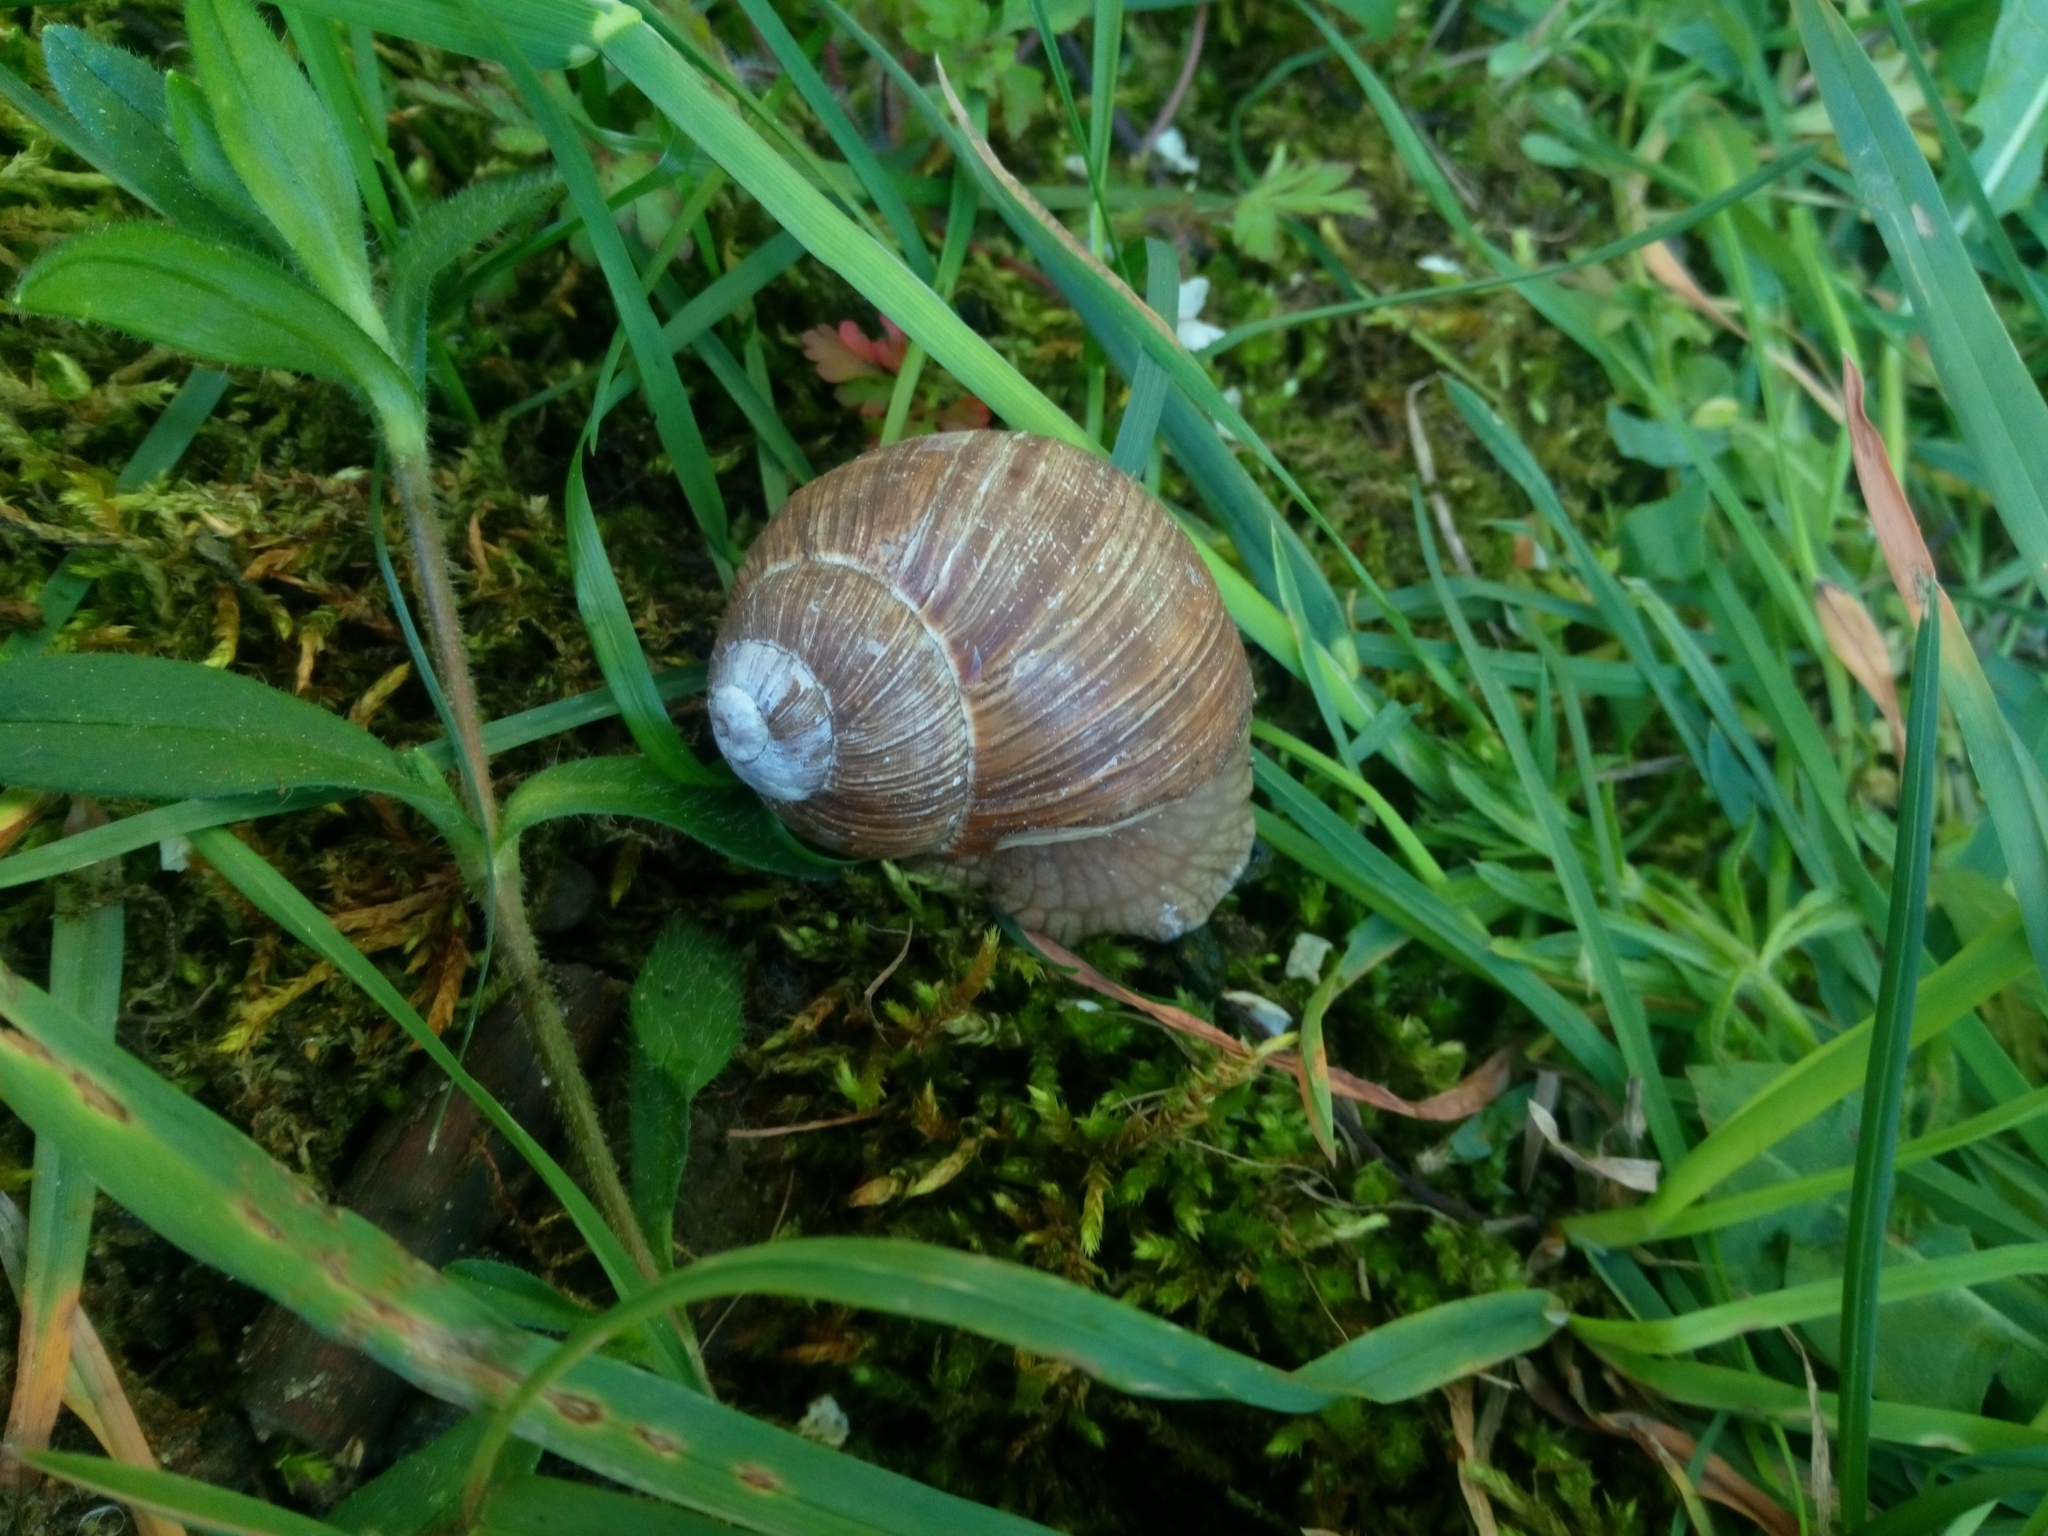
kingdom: Animalia
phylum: Mollusca
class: Gastropoda
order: Stylommatophora
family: Helicidae
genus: Helix
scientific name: Helix pomatia
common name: Roman snail
